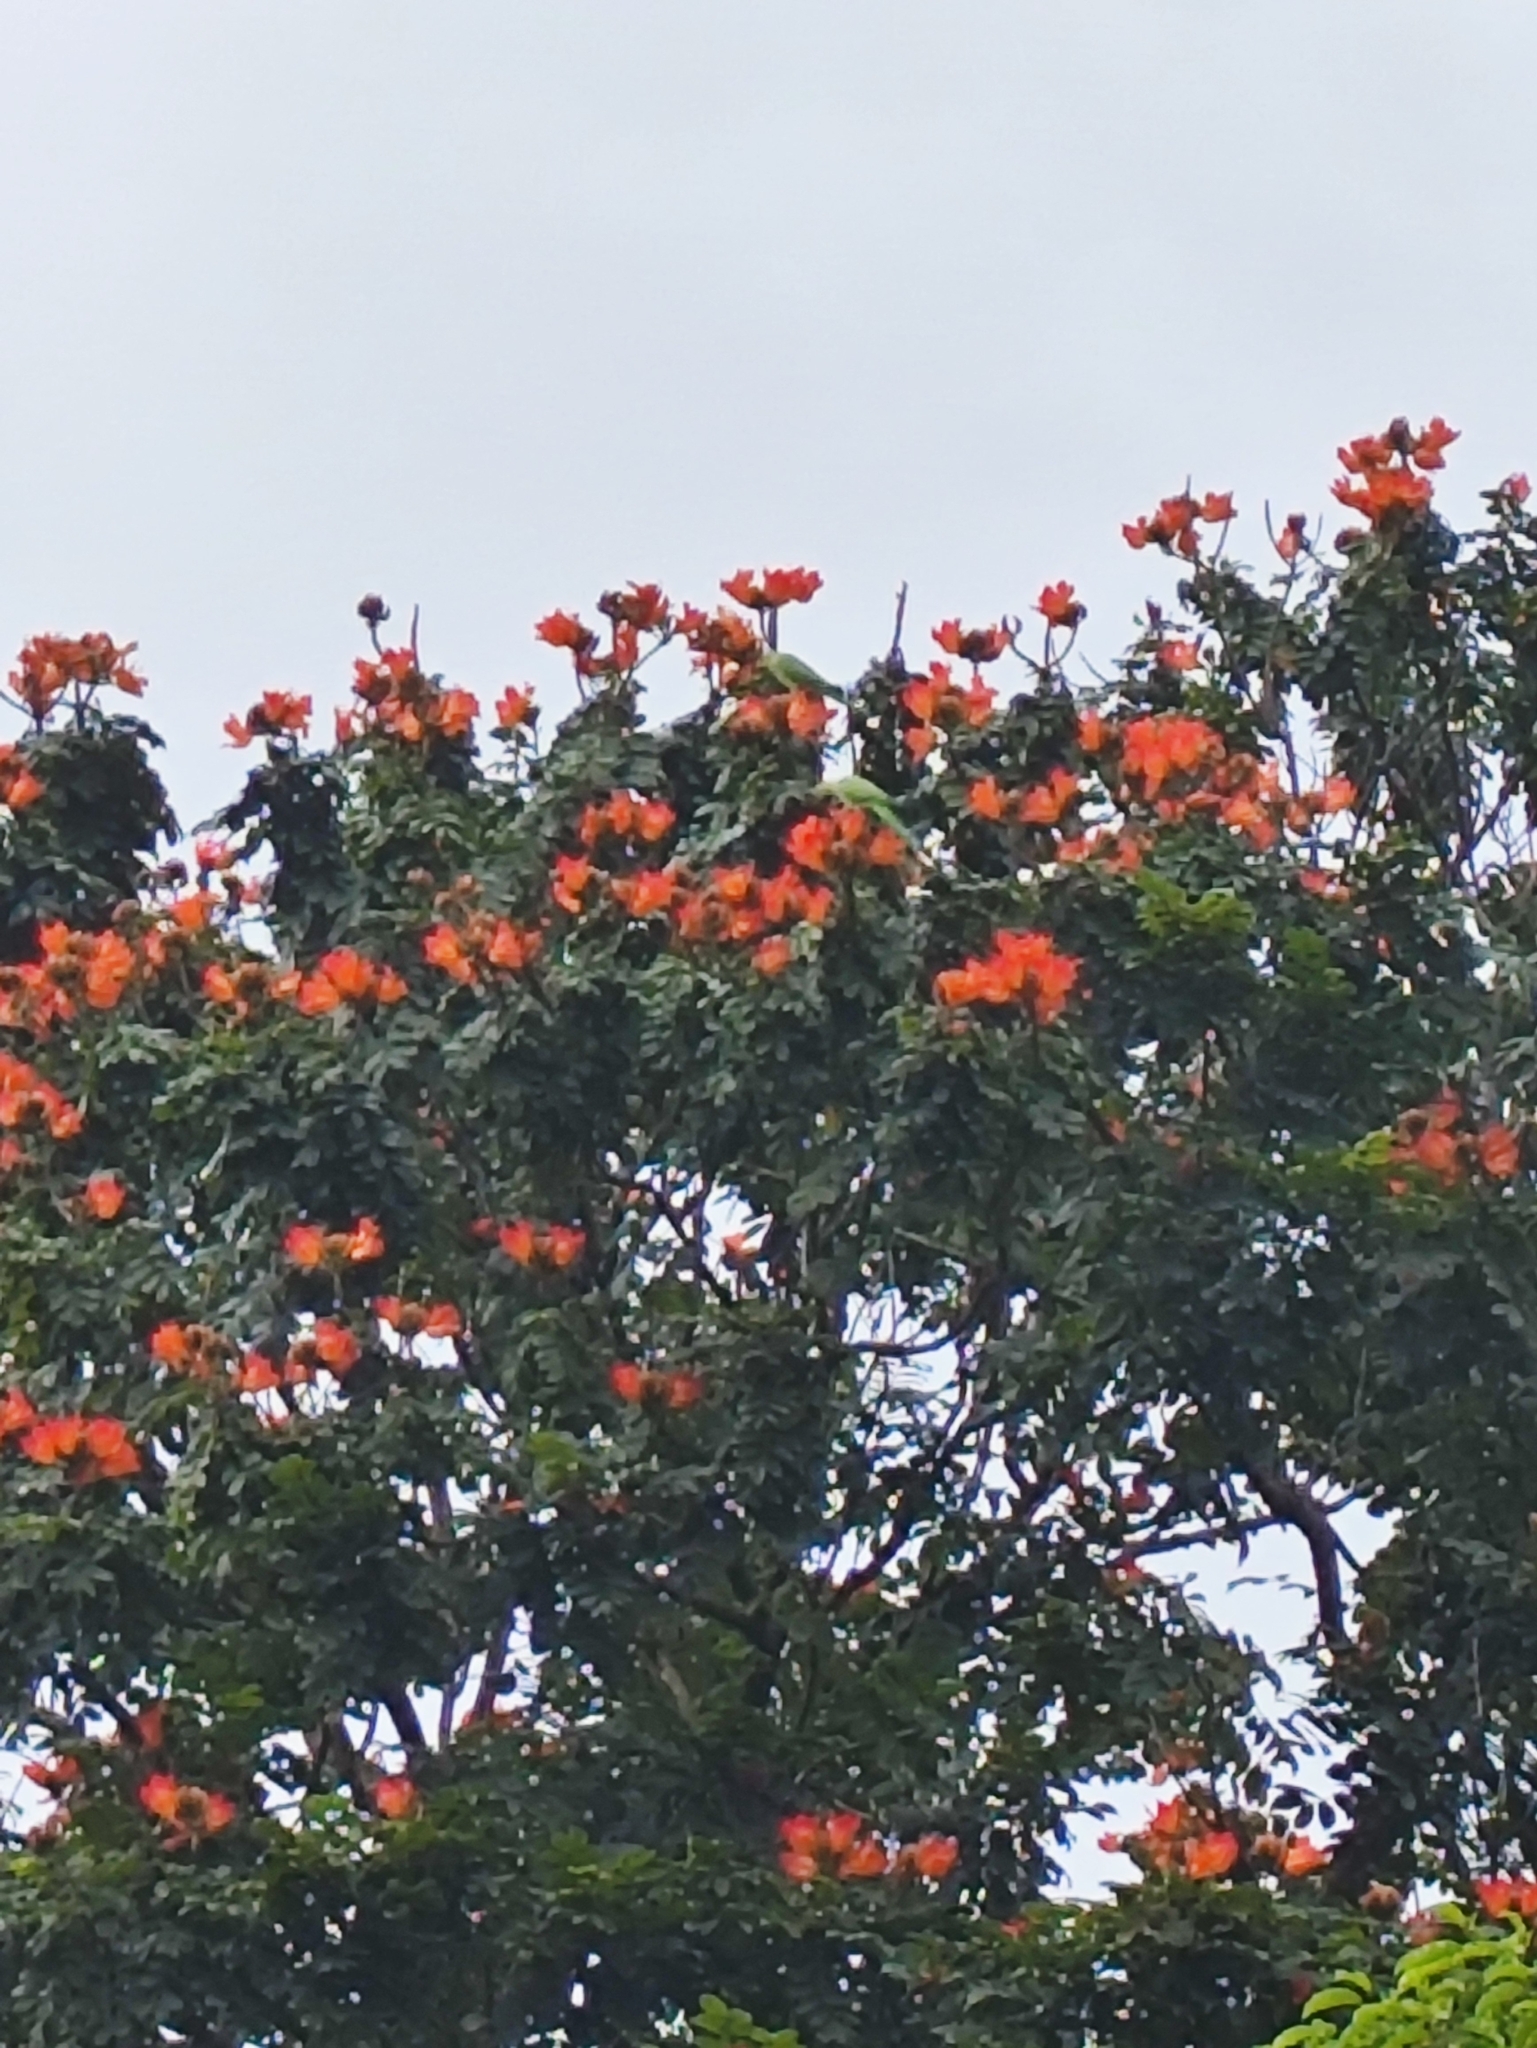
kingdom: Plantae
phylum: Tracheophyta
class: Magnoliopsida
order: Lamiales
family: Bignoniaceae
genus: Spathodea
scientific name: Spathodea campanulata
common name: African tuliptree
